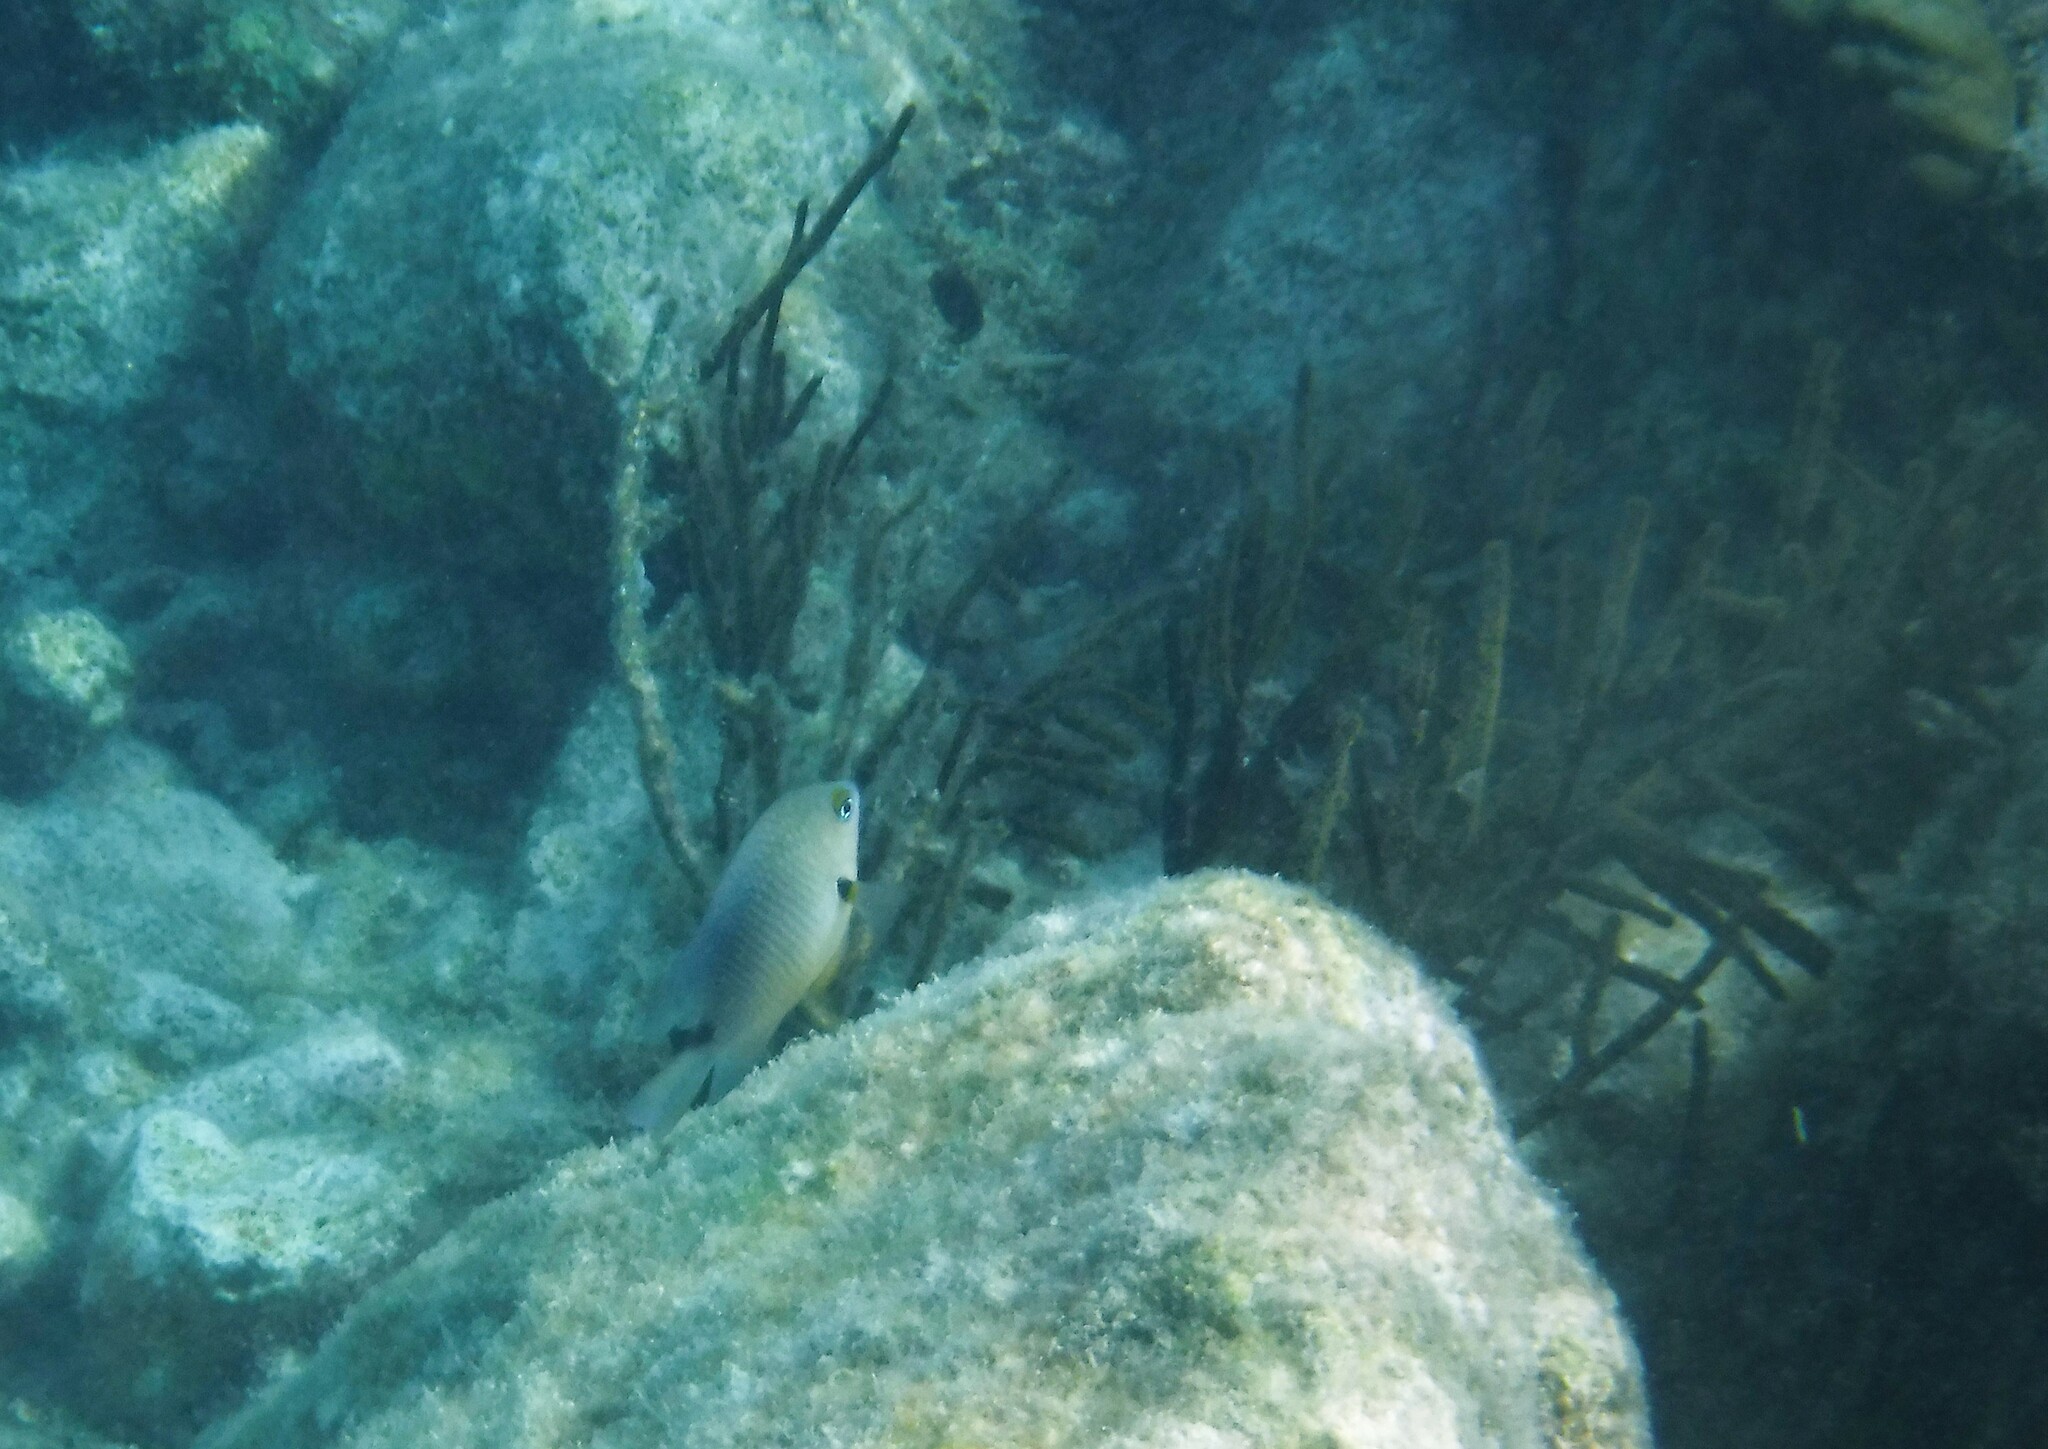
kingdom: Animalia
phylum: Chordata
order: Perciformes
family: Pomacentridae
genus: Stegastes
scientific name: Stegastes planifrons
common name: Threespot damselfish
